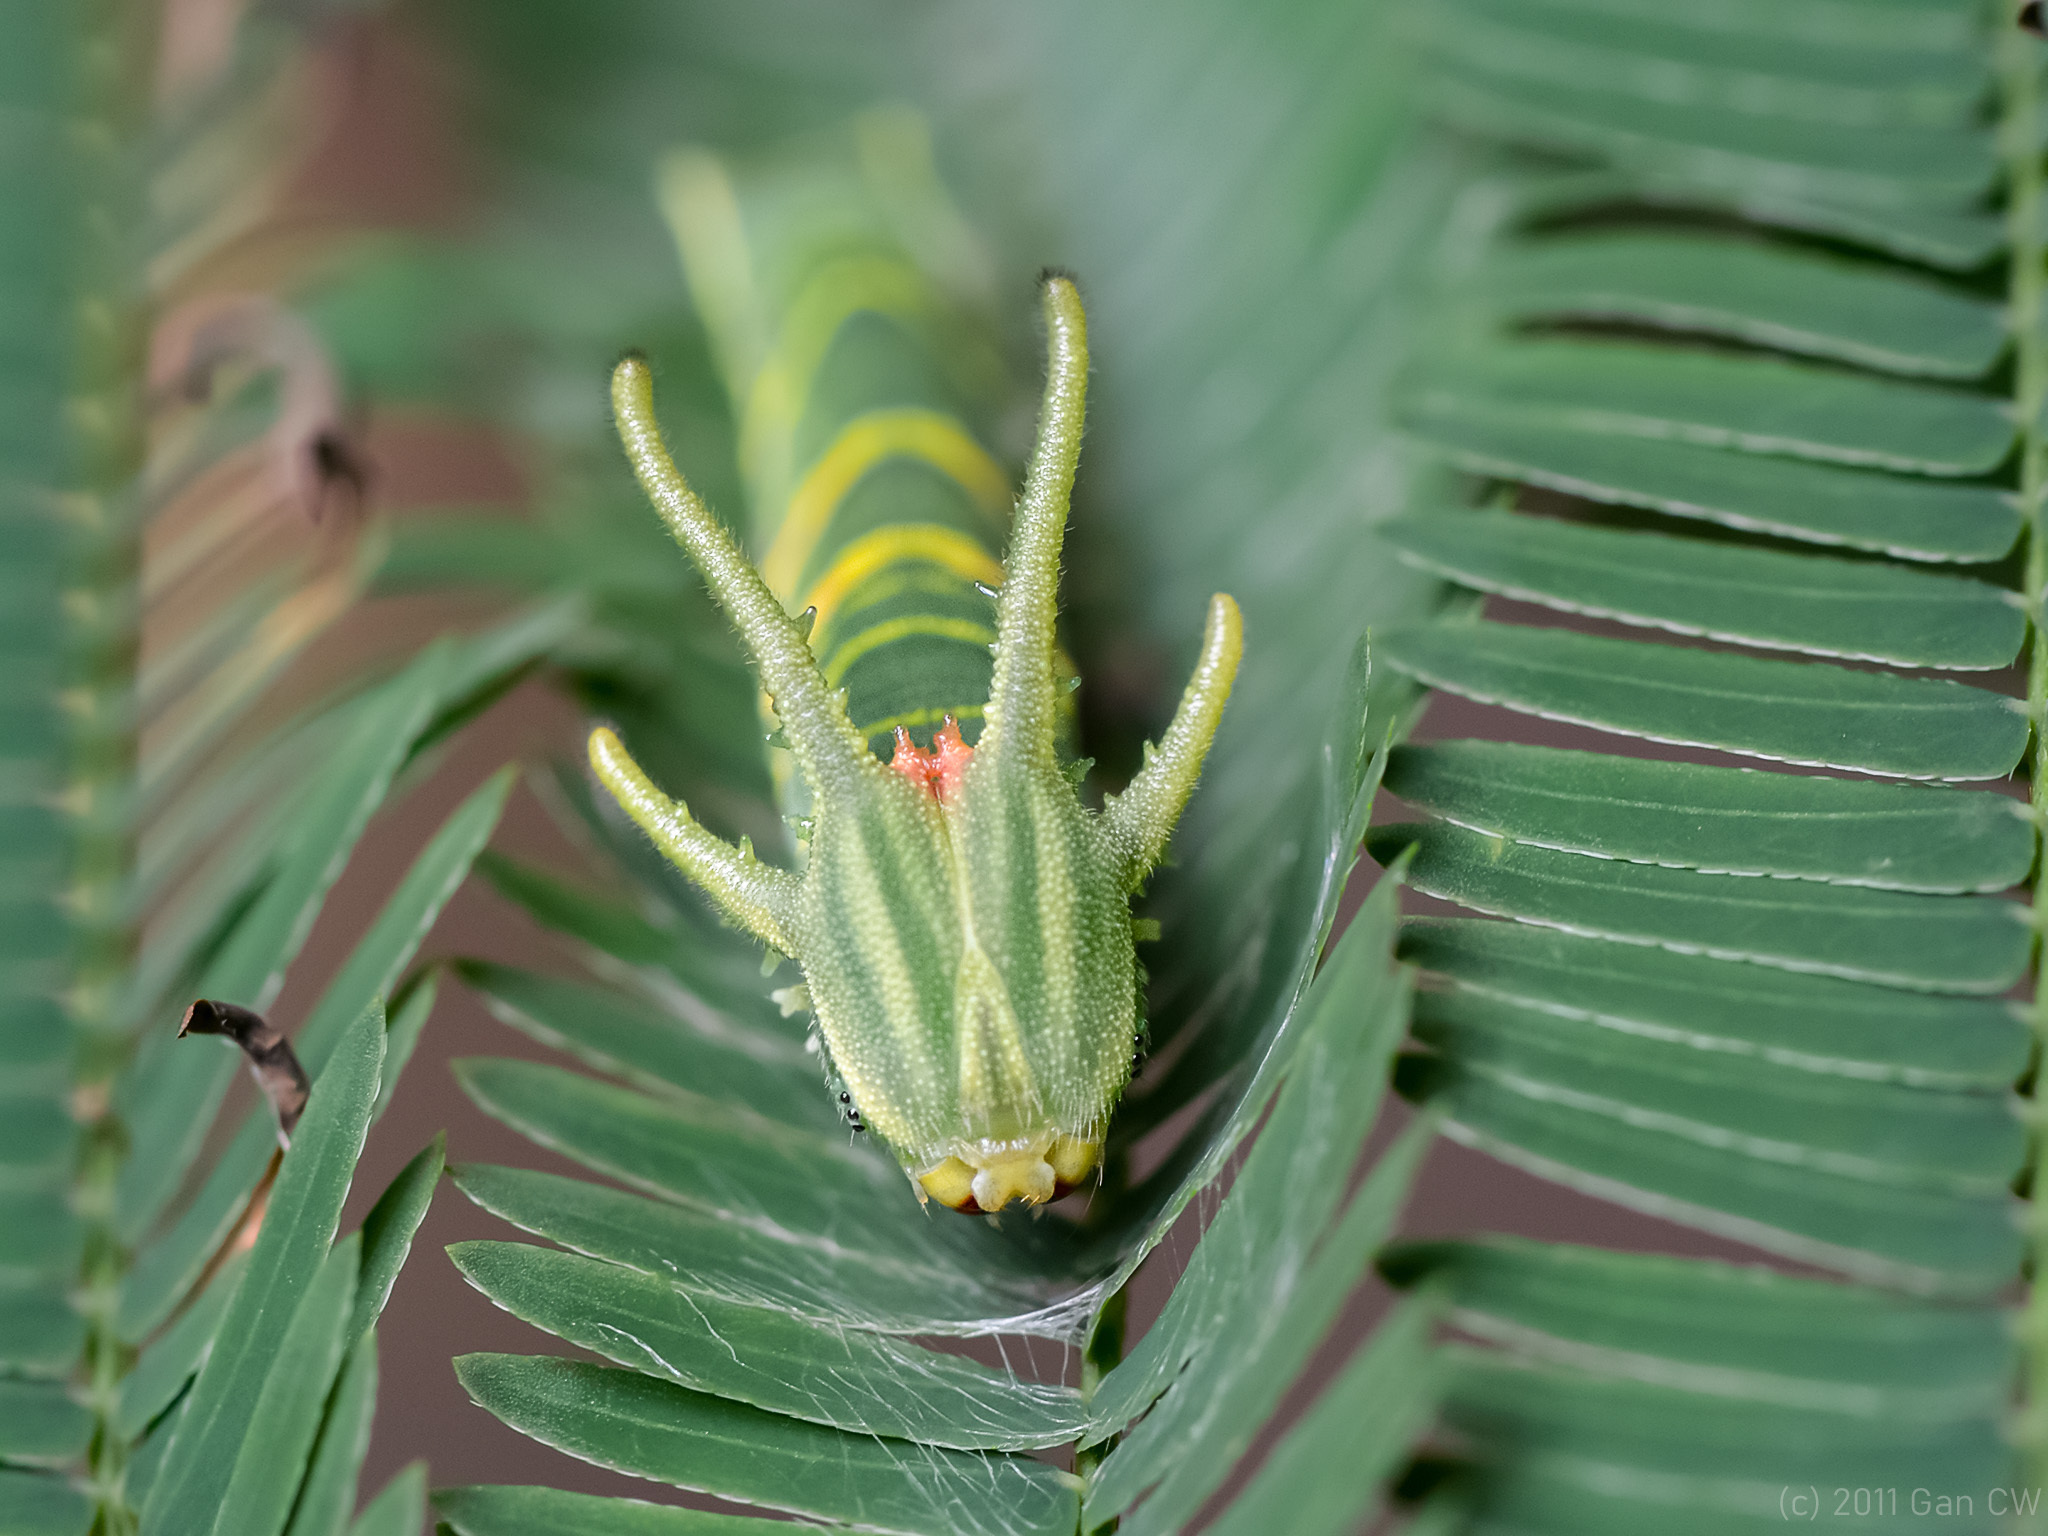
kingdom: Animalia
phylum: Arthropoda
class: Insecta
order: Lepidoptera
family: Nymphalidae
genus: Polyura
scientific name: Polyura athamas
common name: Common nawab
